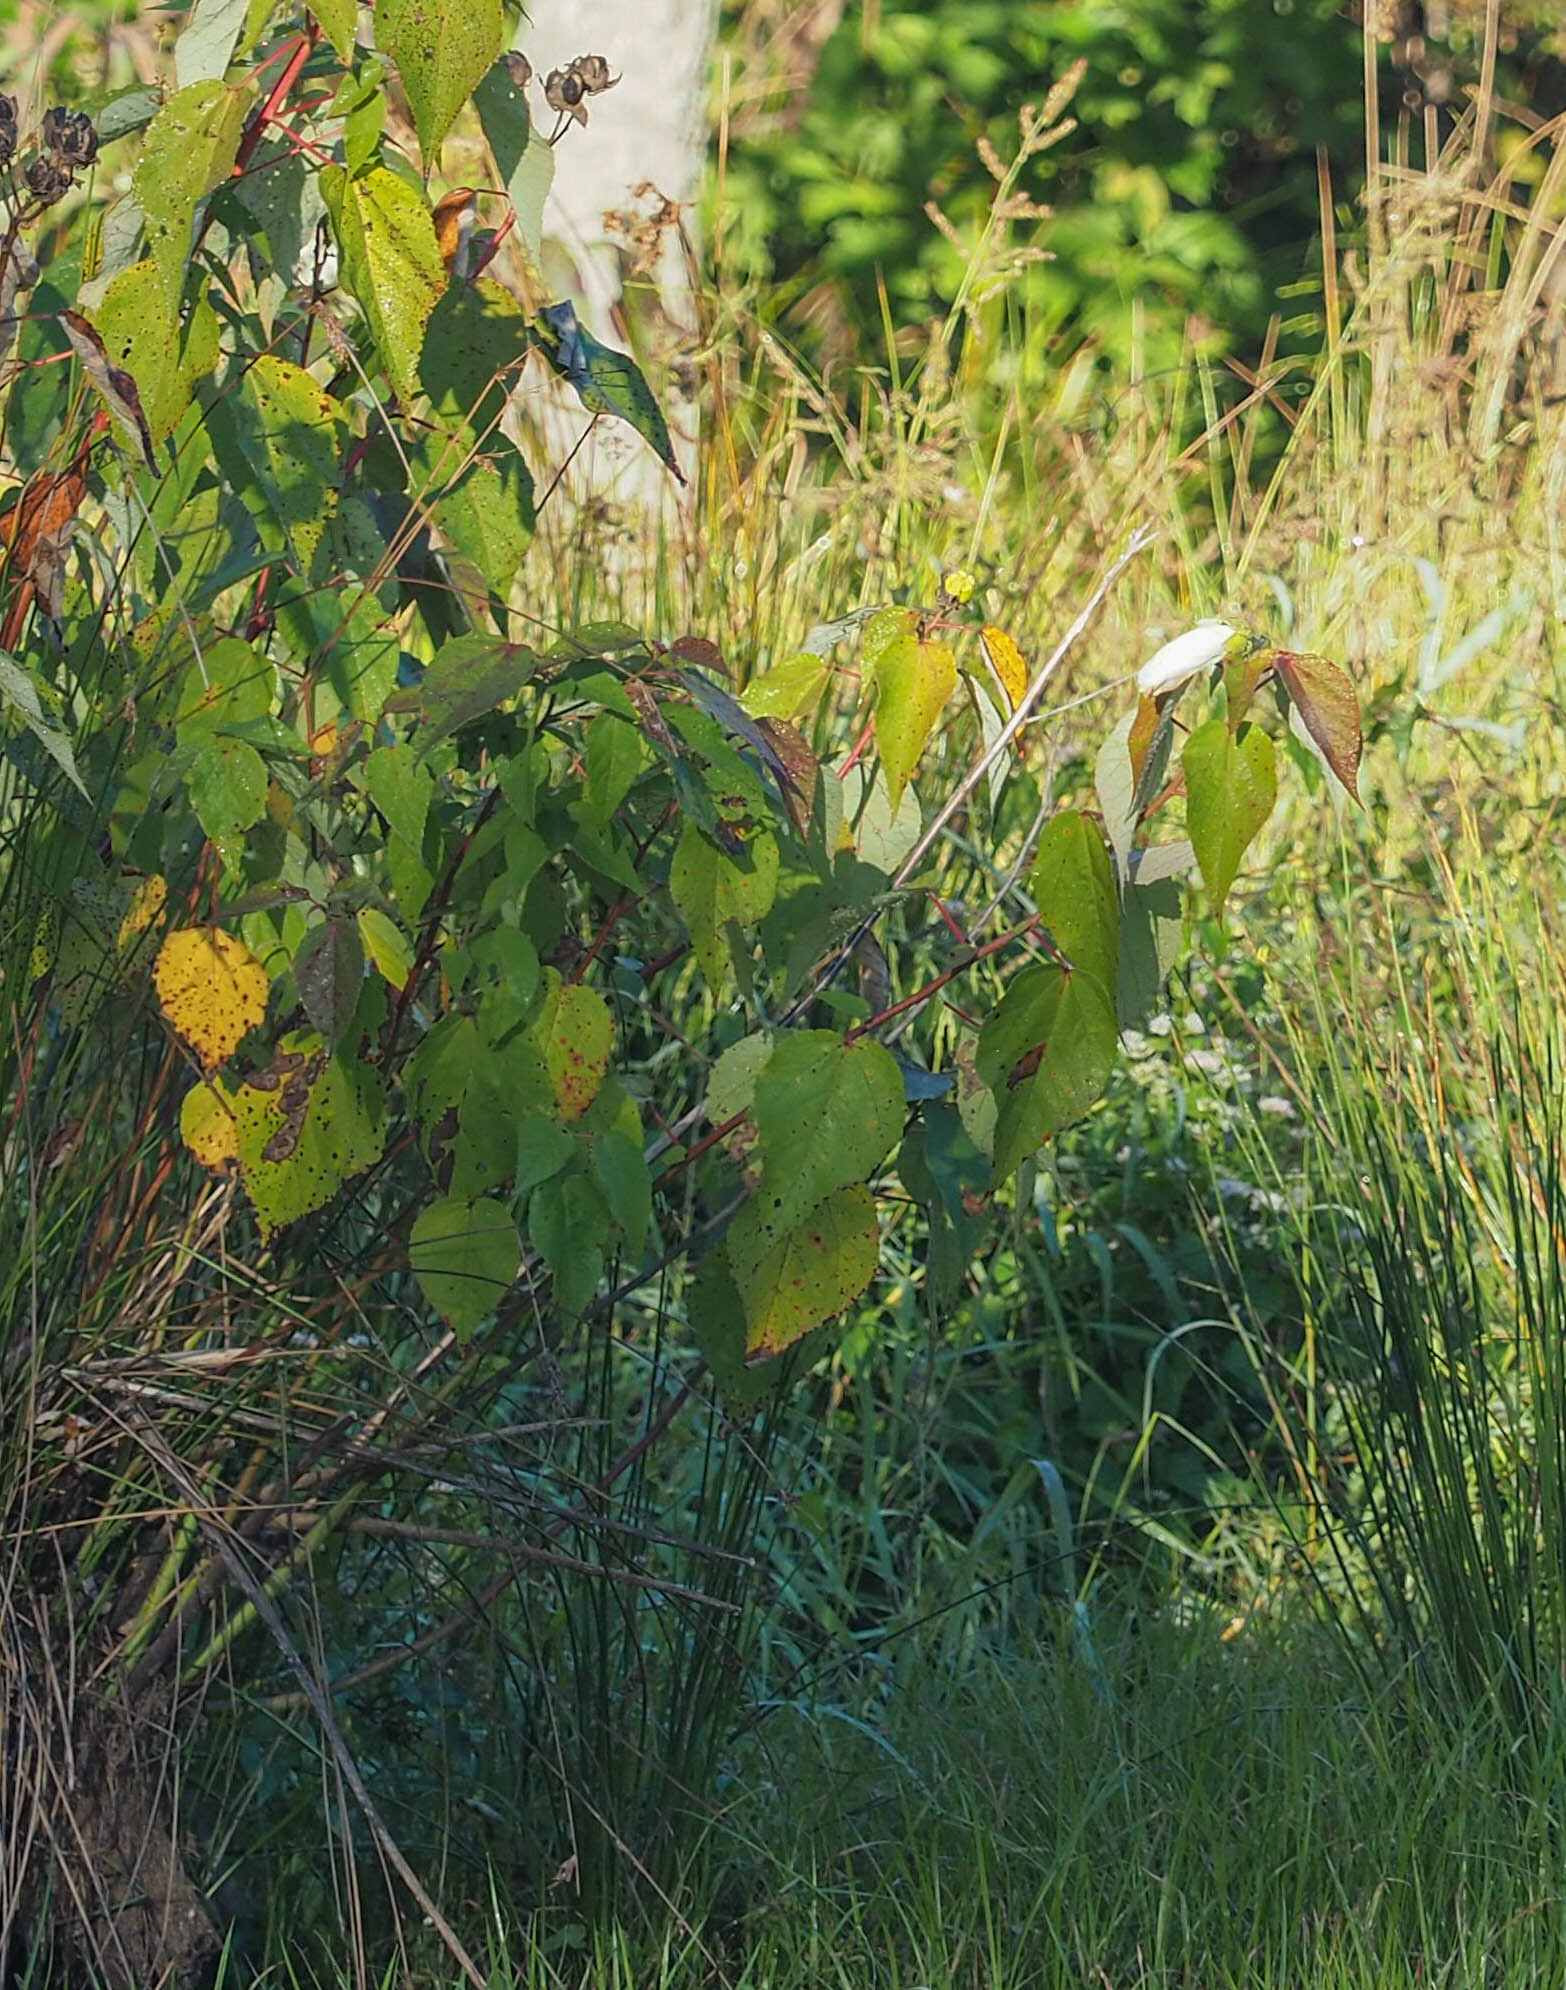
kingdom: Plantae
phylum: Tracheophyta
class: Magnoliopsida
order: Malvales
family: Malvaceae
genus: Hibiscus
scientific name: Hibiscus moscheutos
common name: Common rose-mallow
